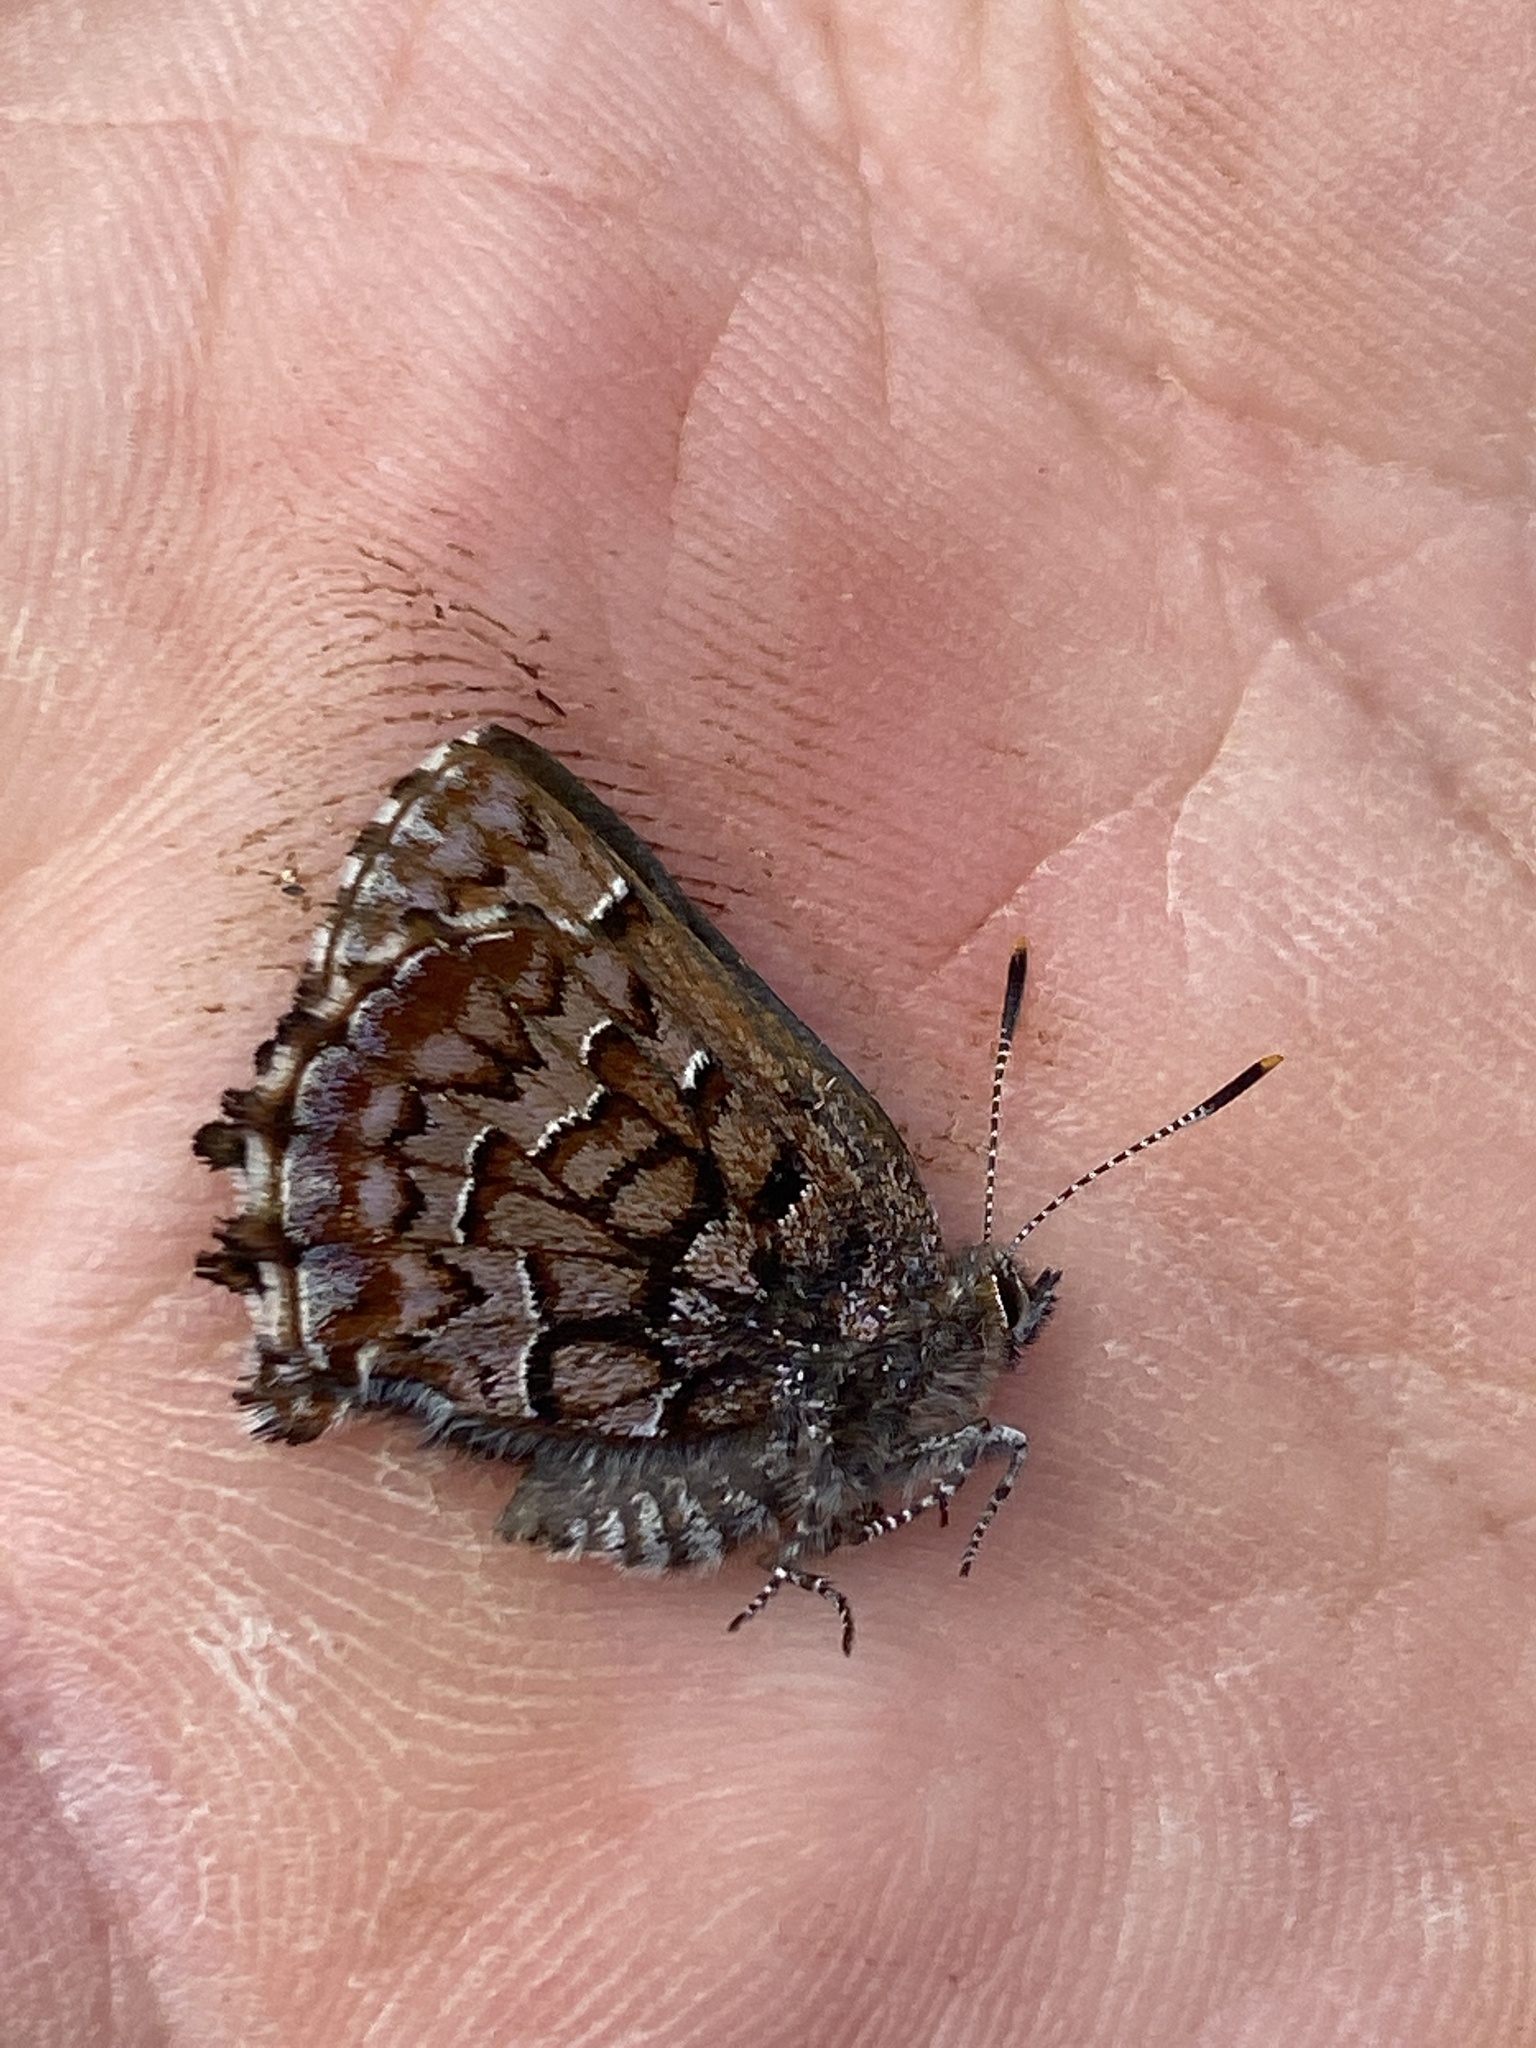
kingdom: Animalia
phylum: Arthropoda
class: Insecta
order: Lepidoptera
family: Lycaenidae
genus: Incisalia
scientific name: Incisalia niphon
